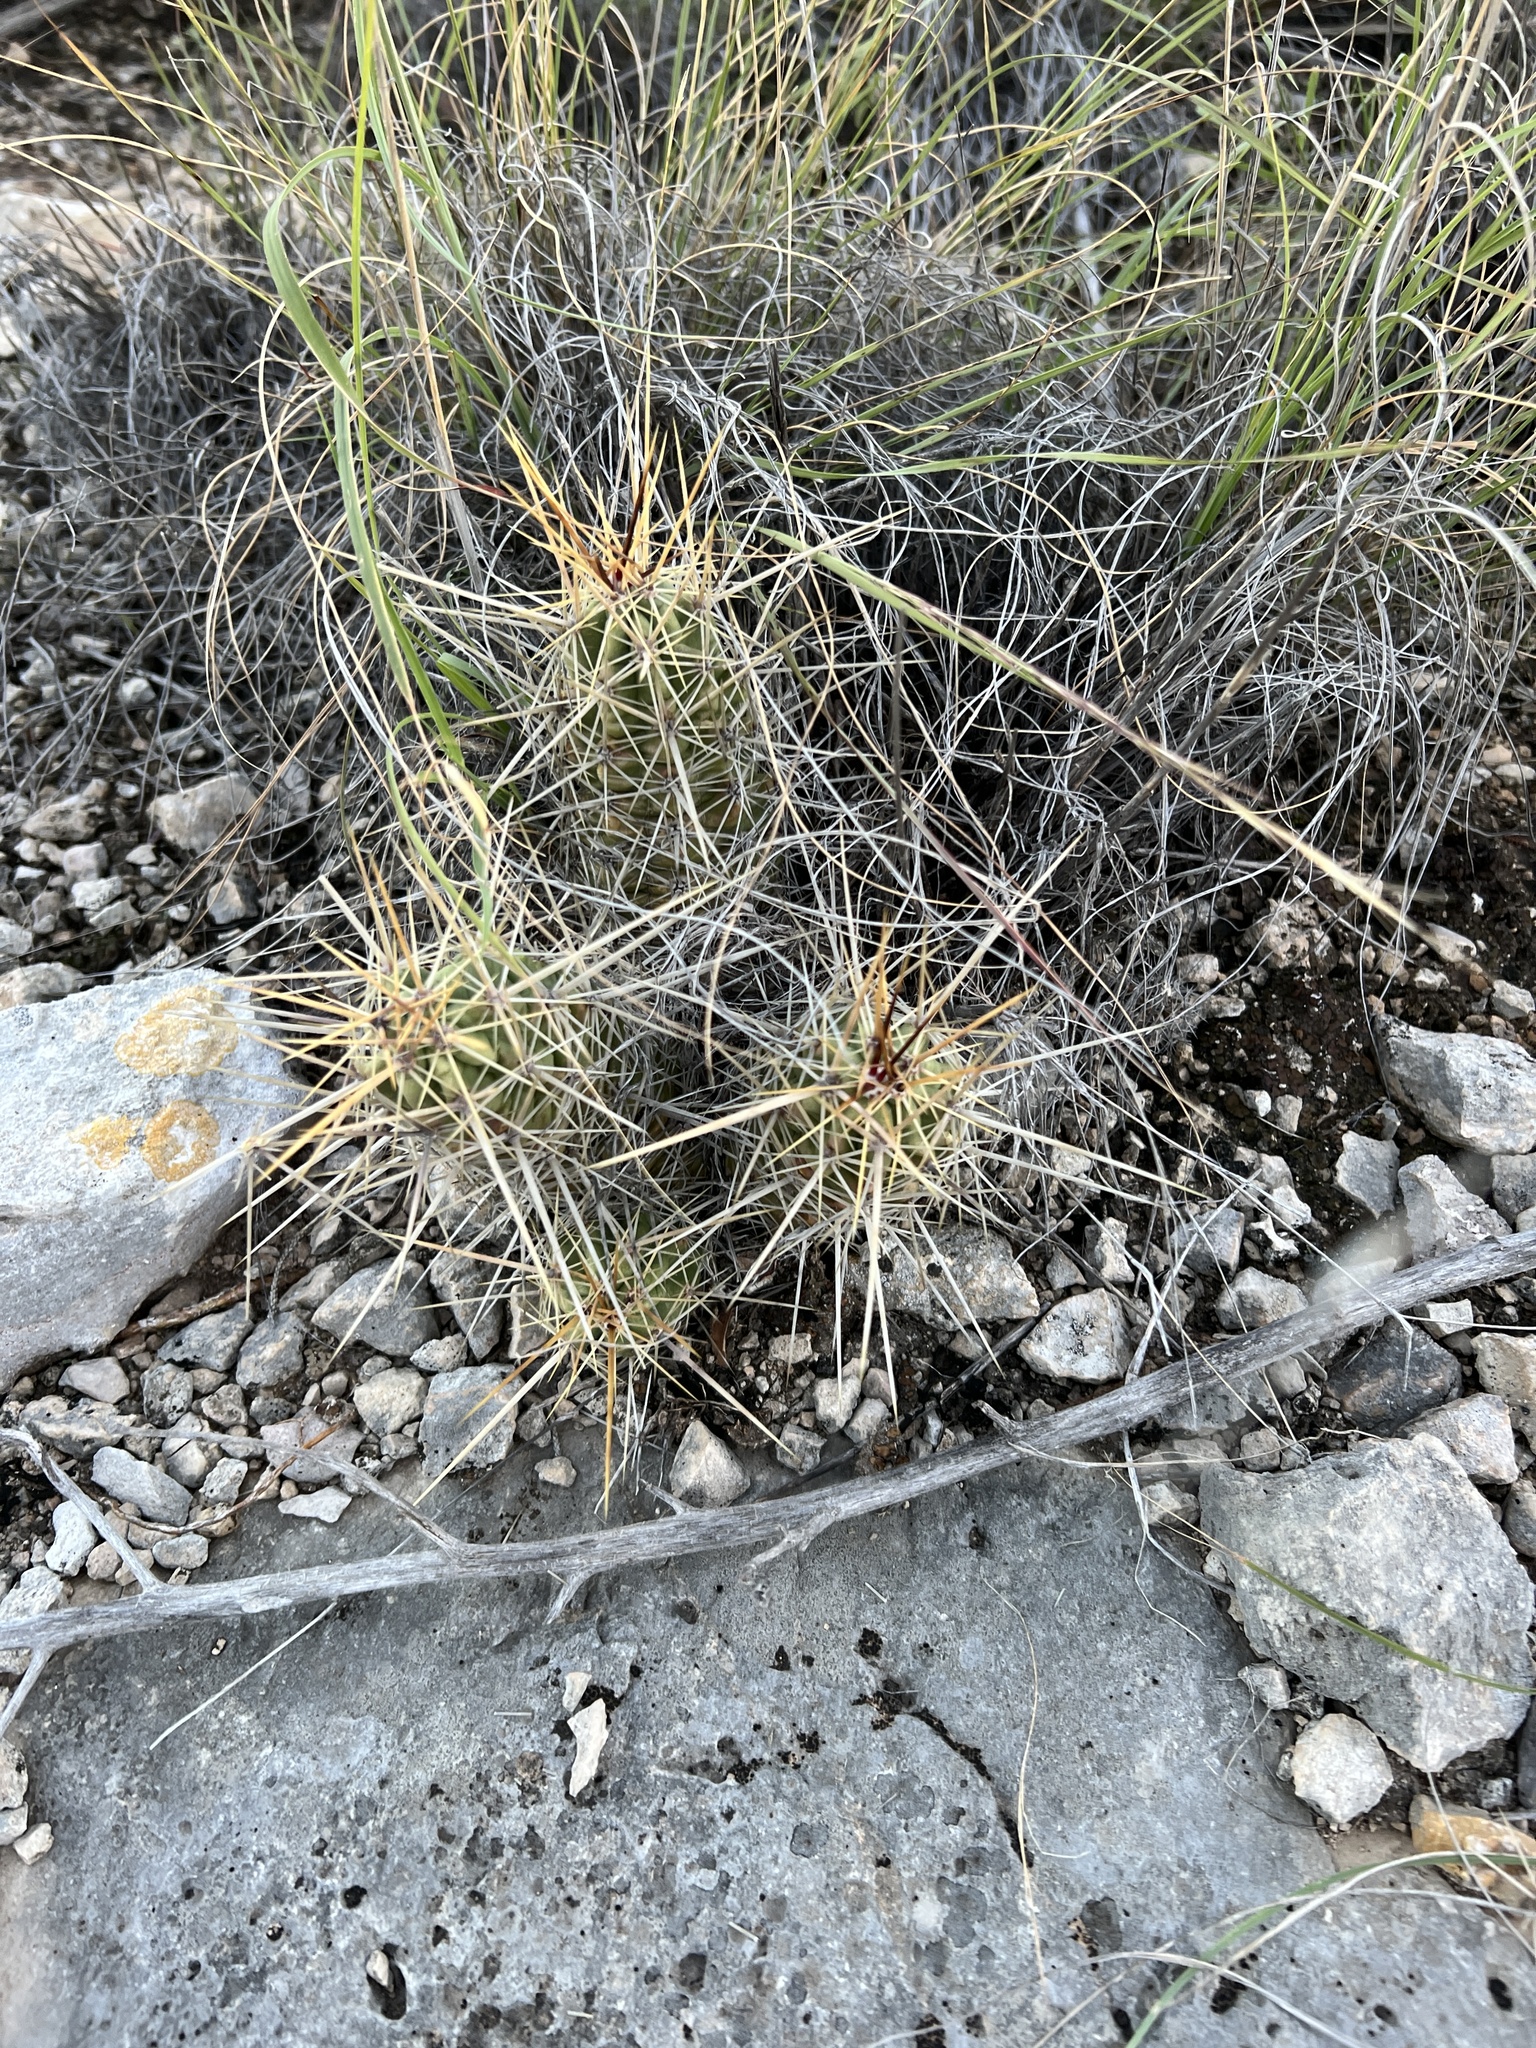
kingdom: Plantae
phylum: Tracheophyta
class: Magnoliopsida
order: Caryophyllales
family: Cactaceae
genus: Echinocereus
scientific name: Echinocereus enneacanthus
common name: Pitaya
